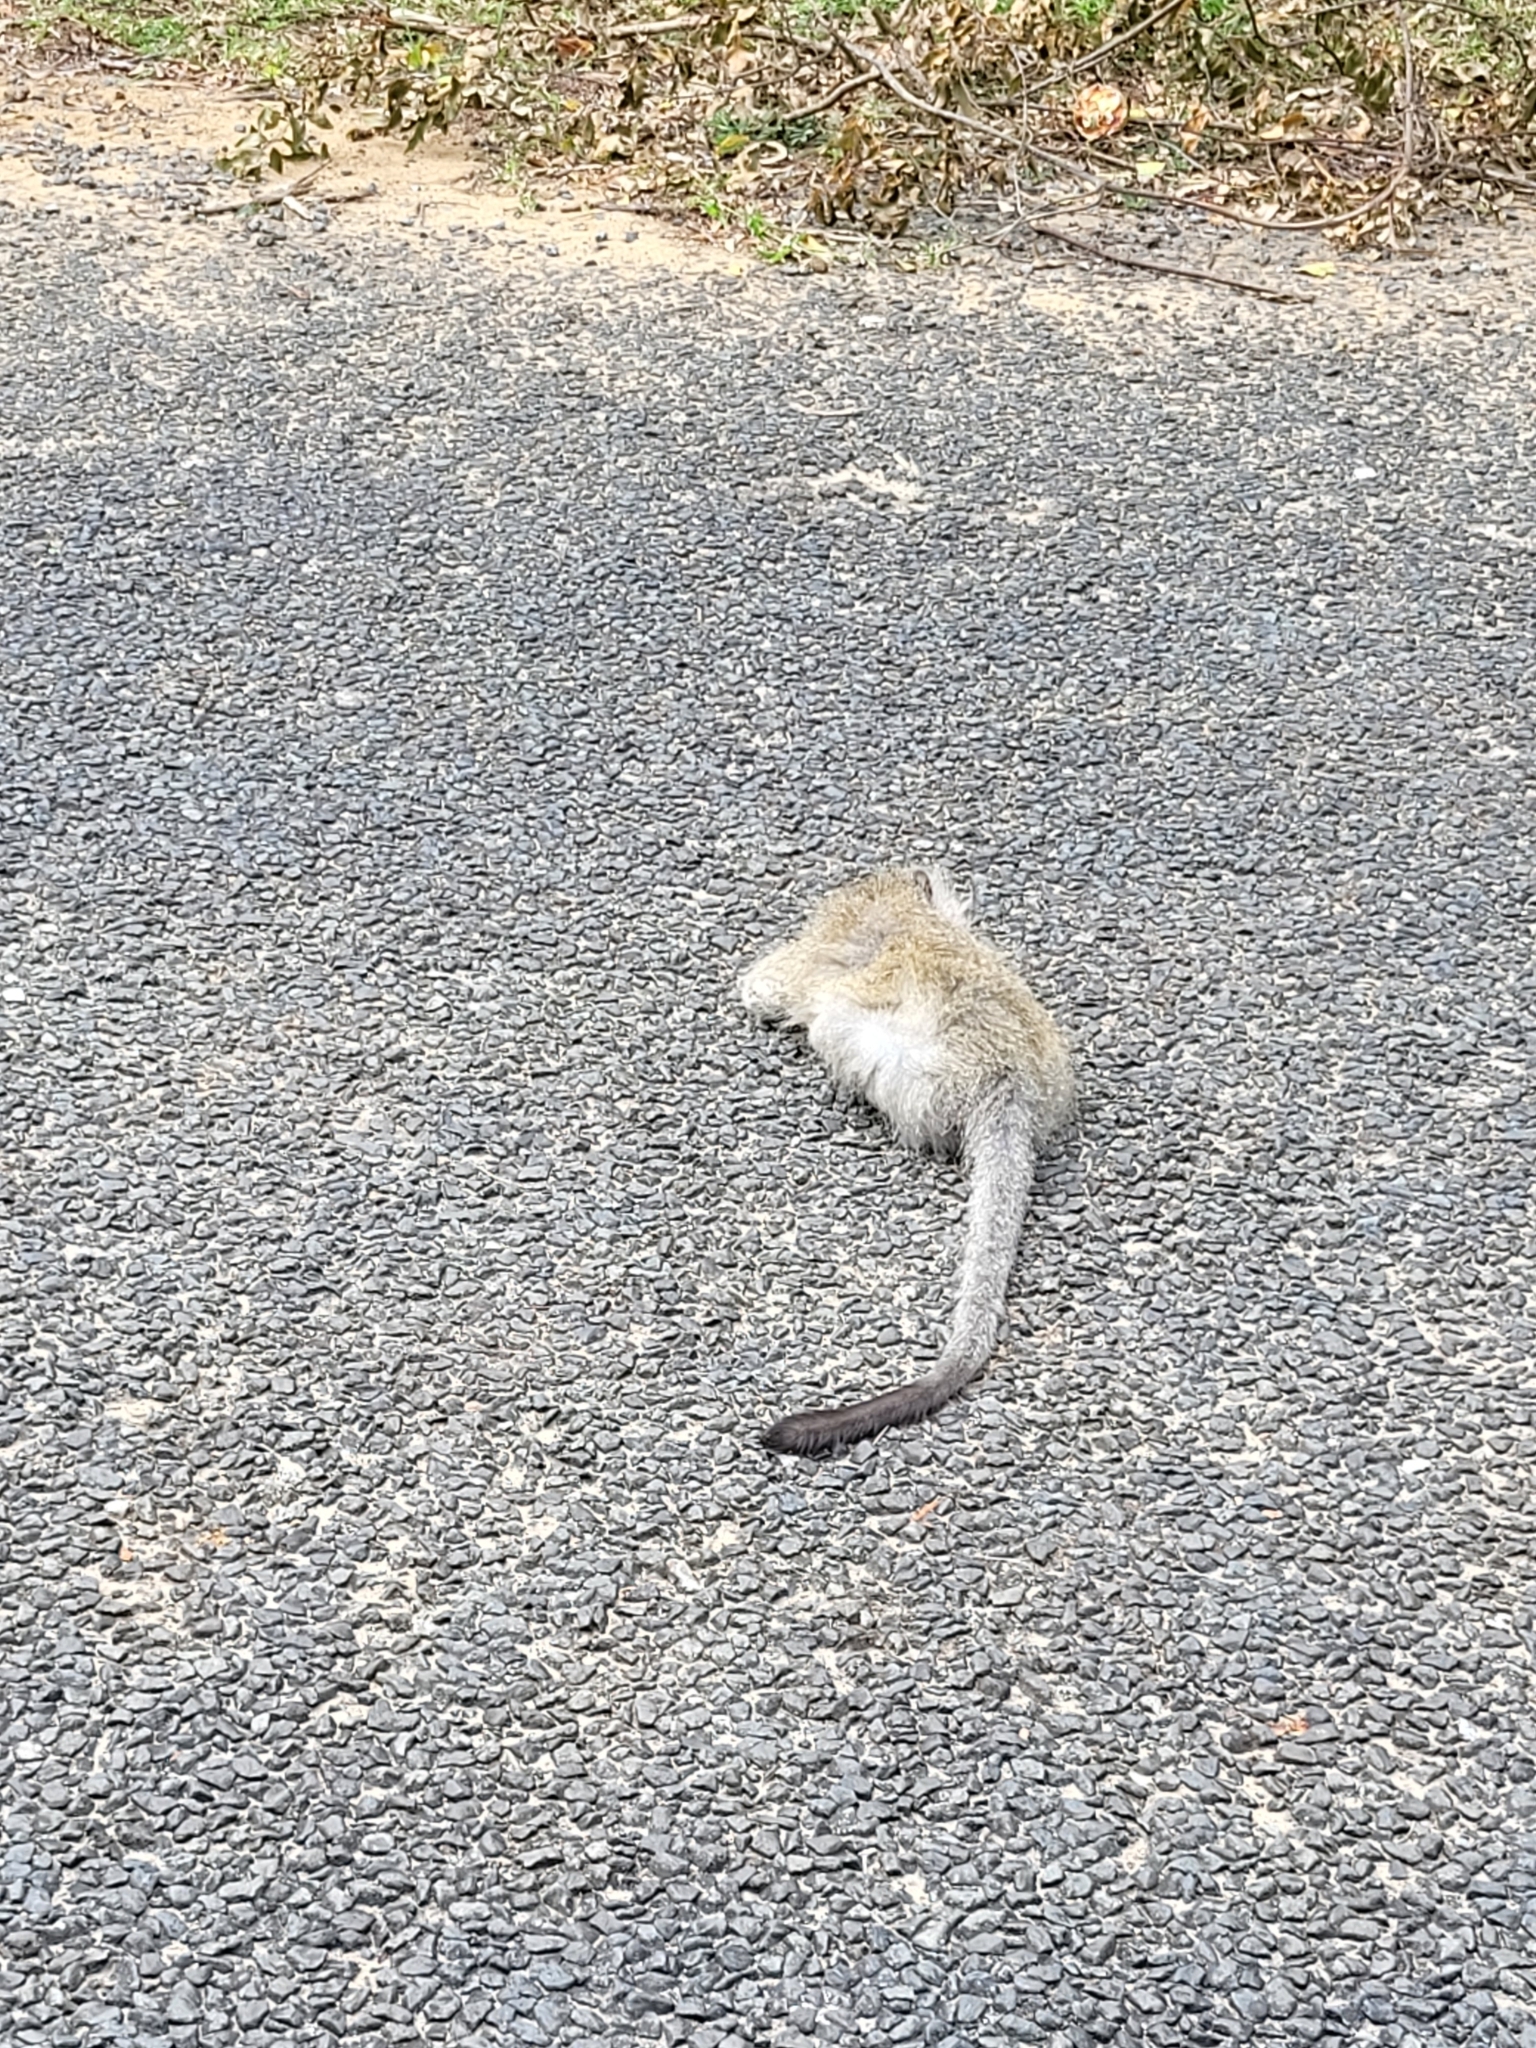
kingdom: Animalia
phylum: Chordata
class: Mammalia
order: Primates
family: Cercopithecidae
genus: Chlorocebus
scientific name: Chlorocebus pygerythrus
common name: Vervet monkey
